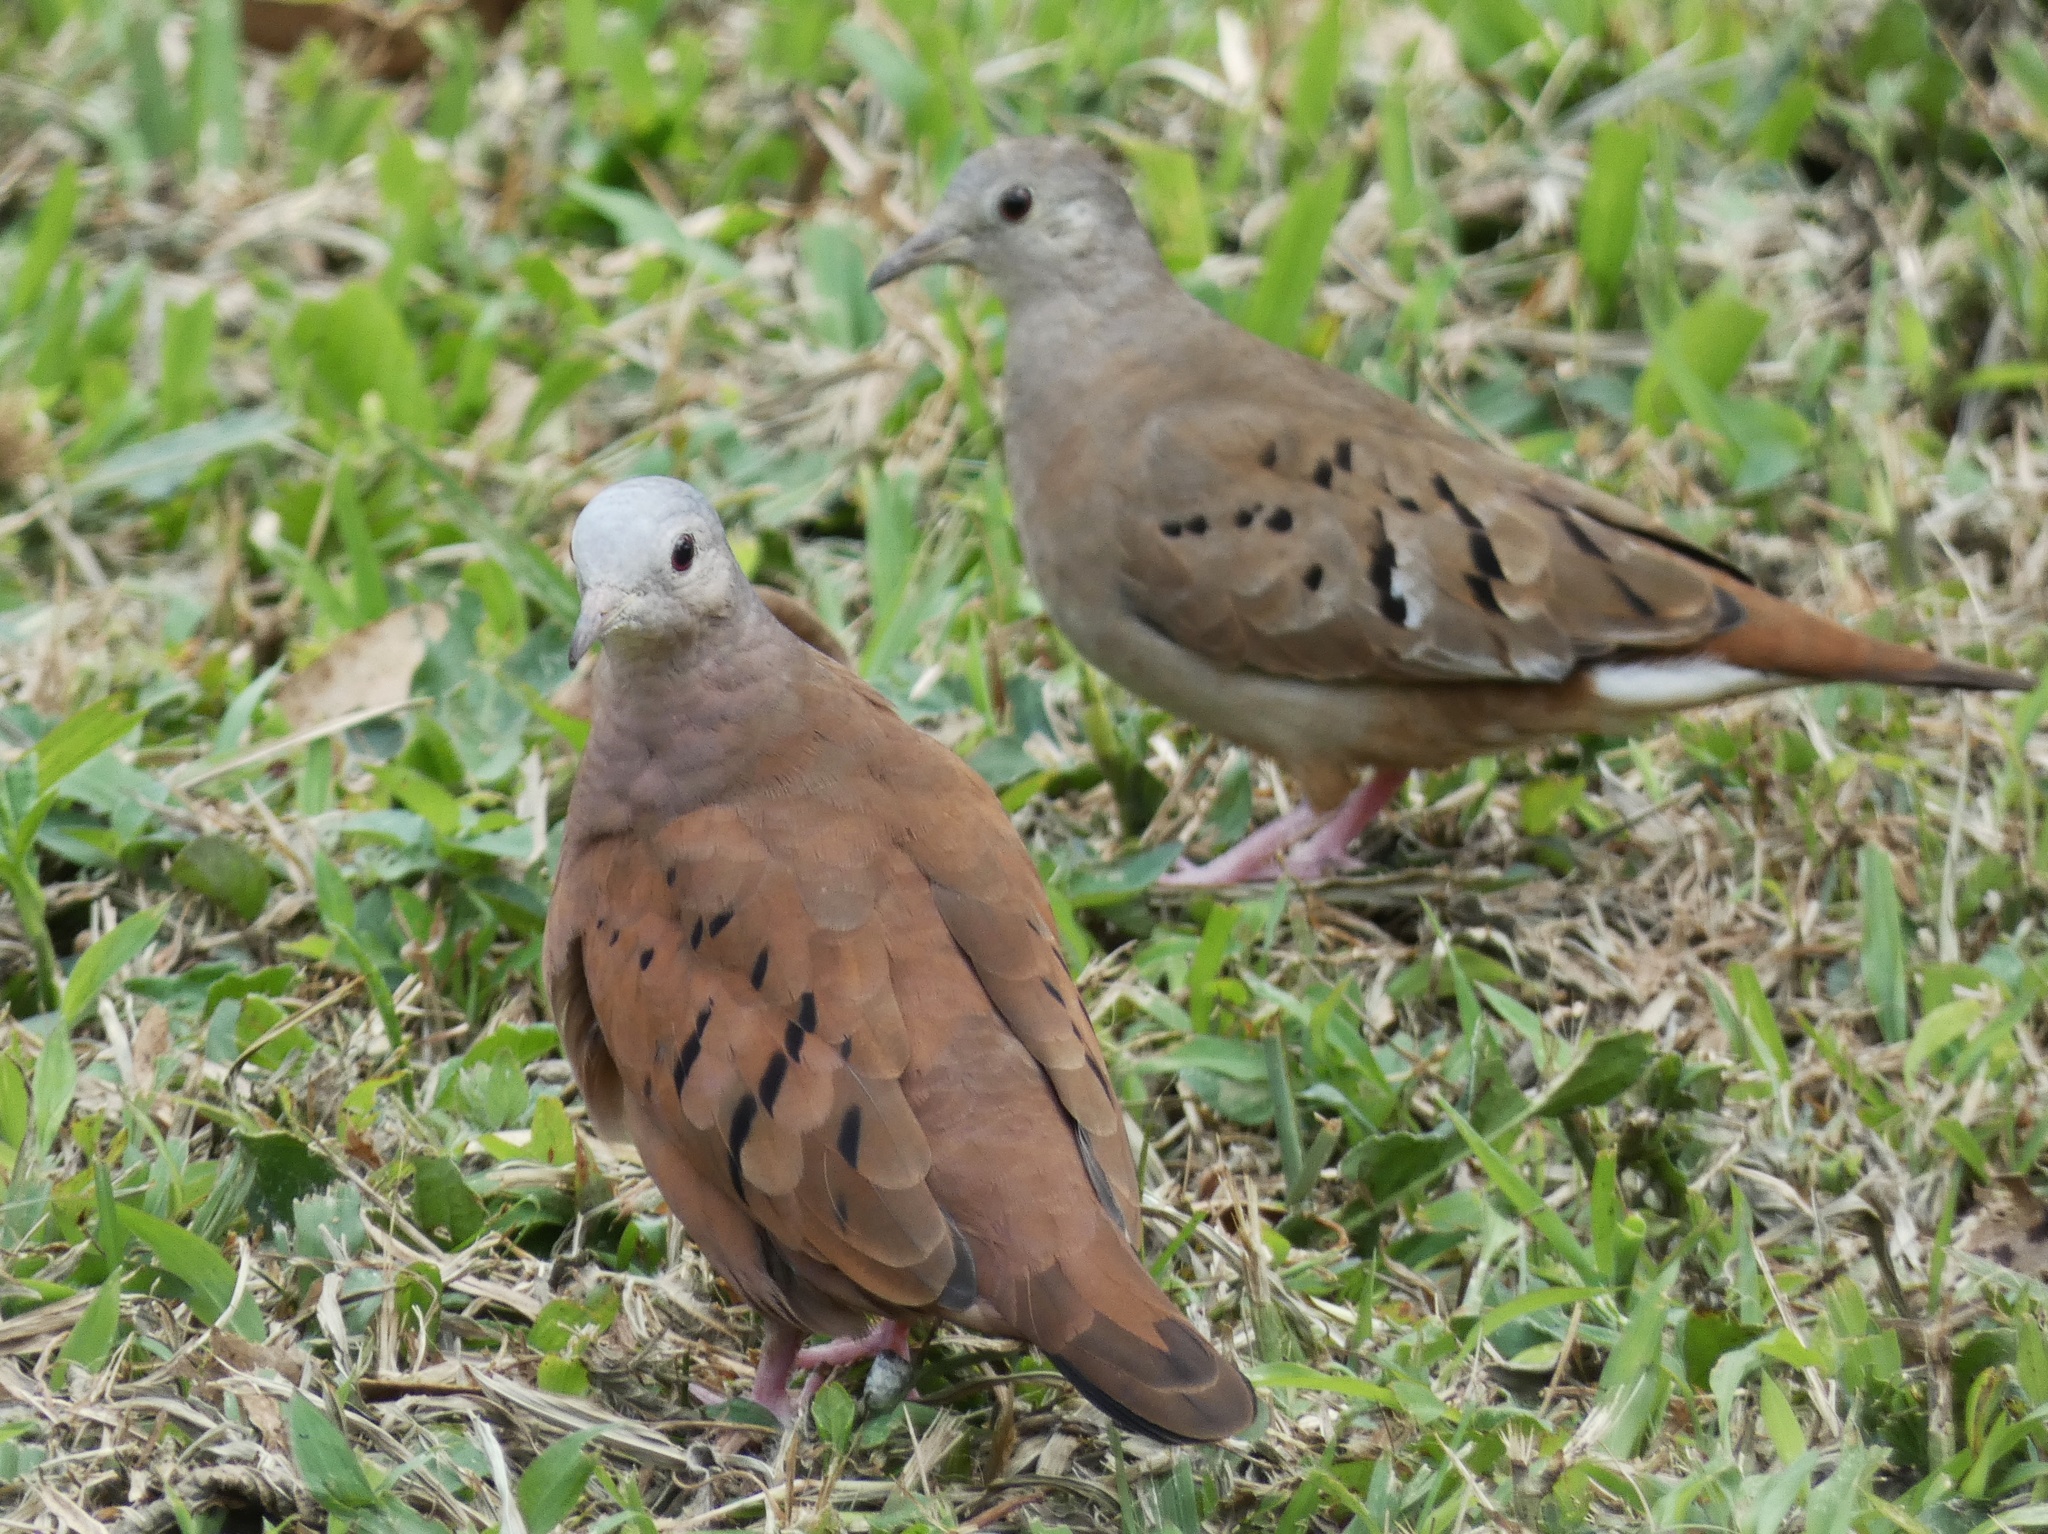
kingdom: Animalia
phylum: Chordata
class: Aves
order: Columbiformes
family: Columbidae
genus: Columbina
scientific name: Columbina talpacoti
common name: Ruddy ground dove
